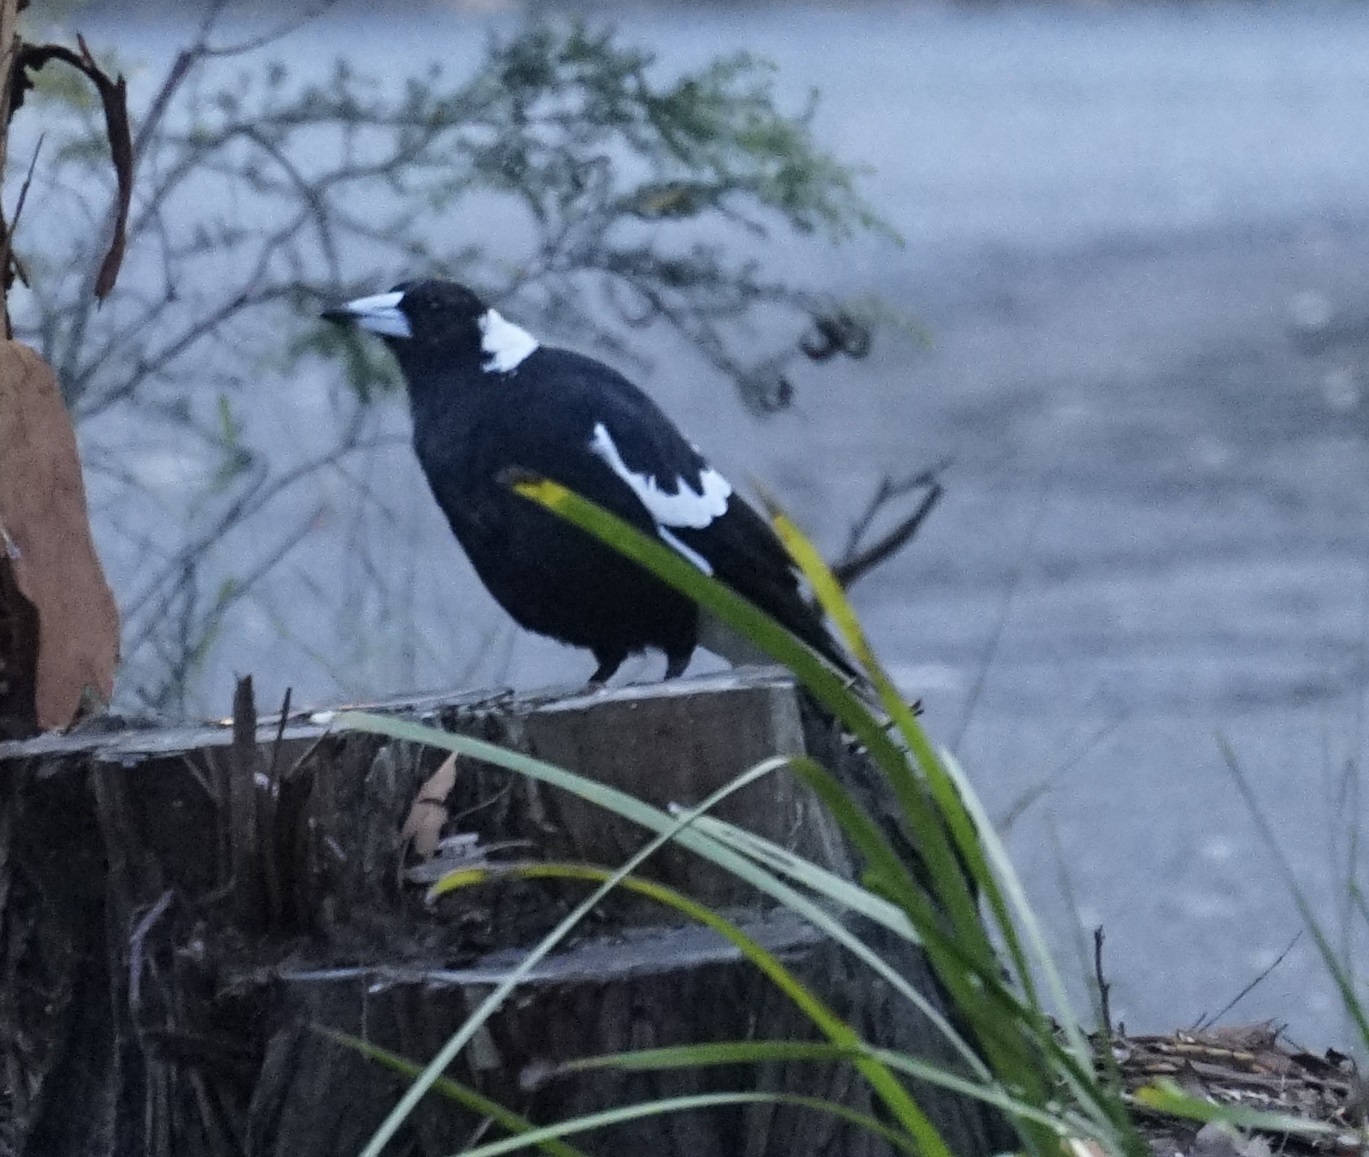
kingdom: Animalia
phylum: Chordata
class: Aves
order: Passeriformes
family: Cracticidae
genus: Gymnorhina
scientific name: Gymnorhina tibicen
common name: Australian magpie
